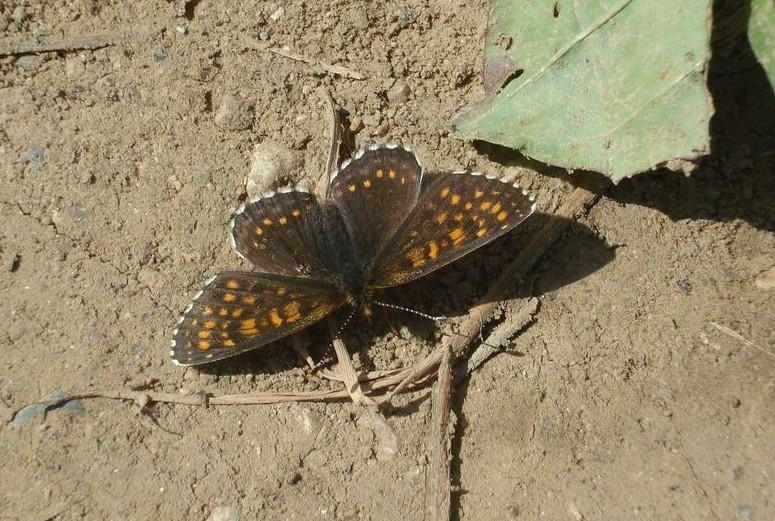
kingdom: Animalia
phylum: Arthropoda
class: Insecta
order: Lepidoptera
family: Nymphalidae
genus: Melitaea
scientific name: Melitaea diamina
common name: False heath fritillary
